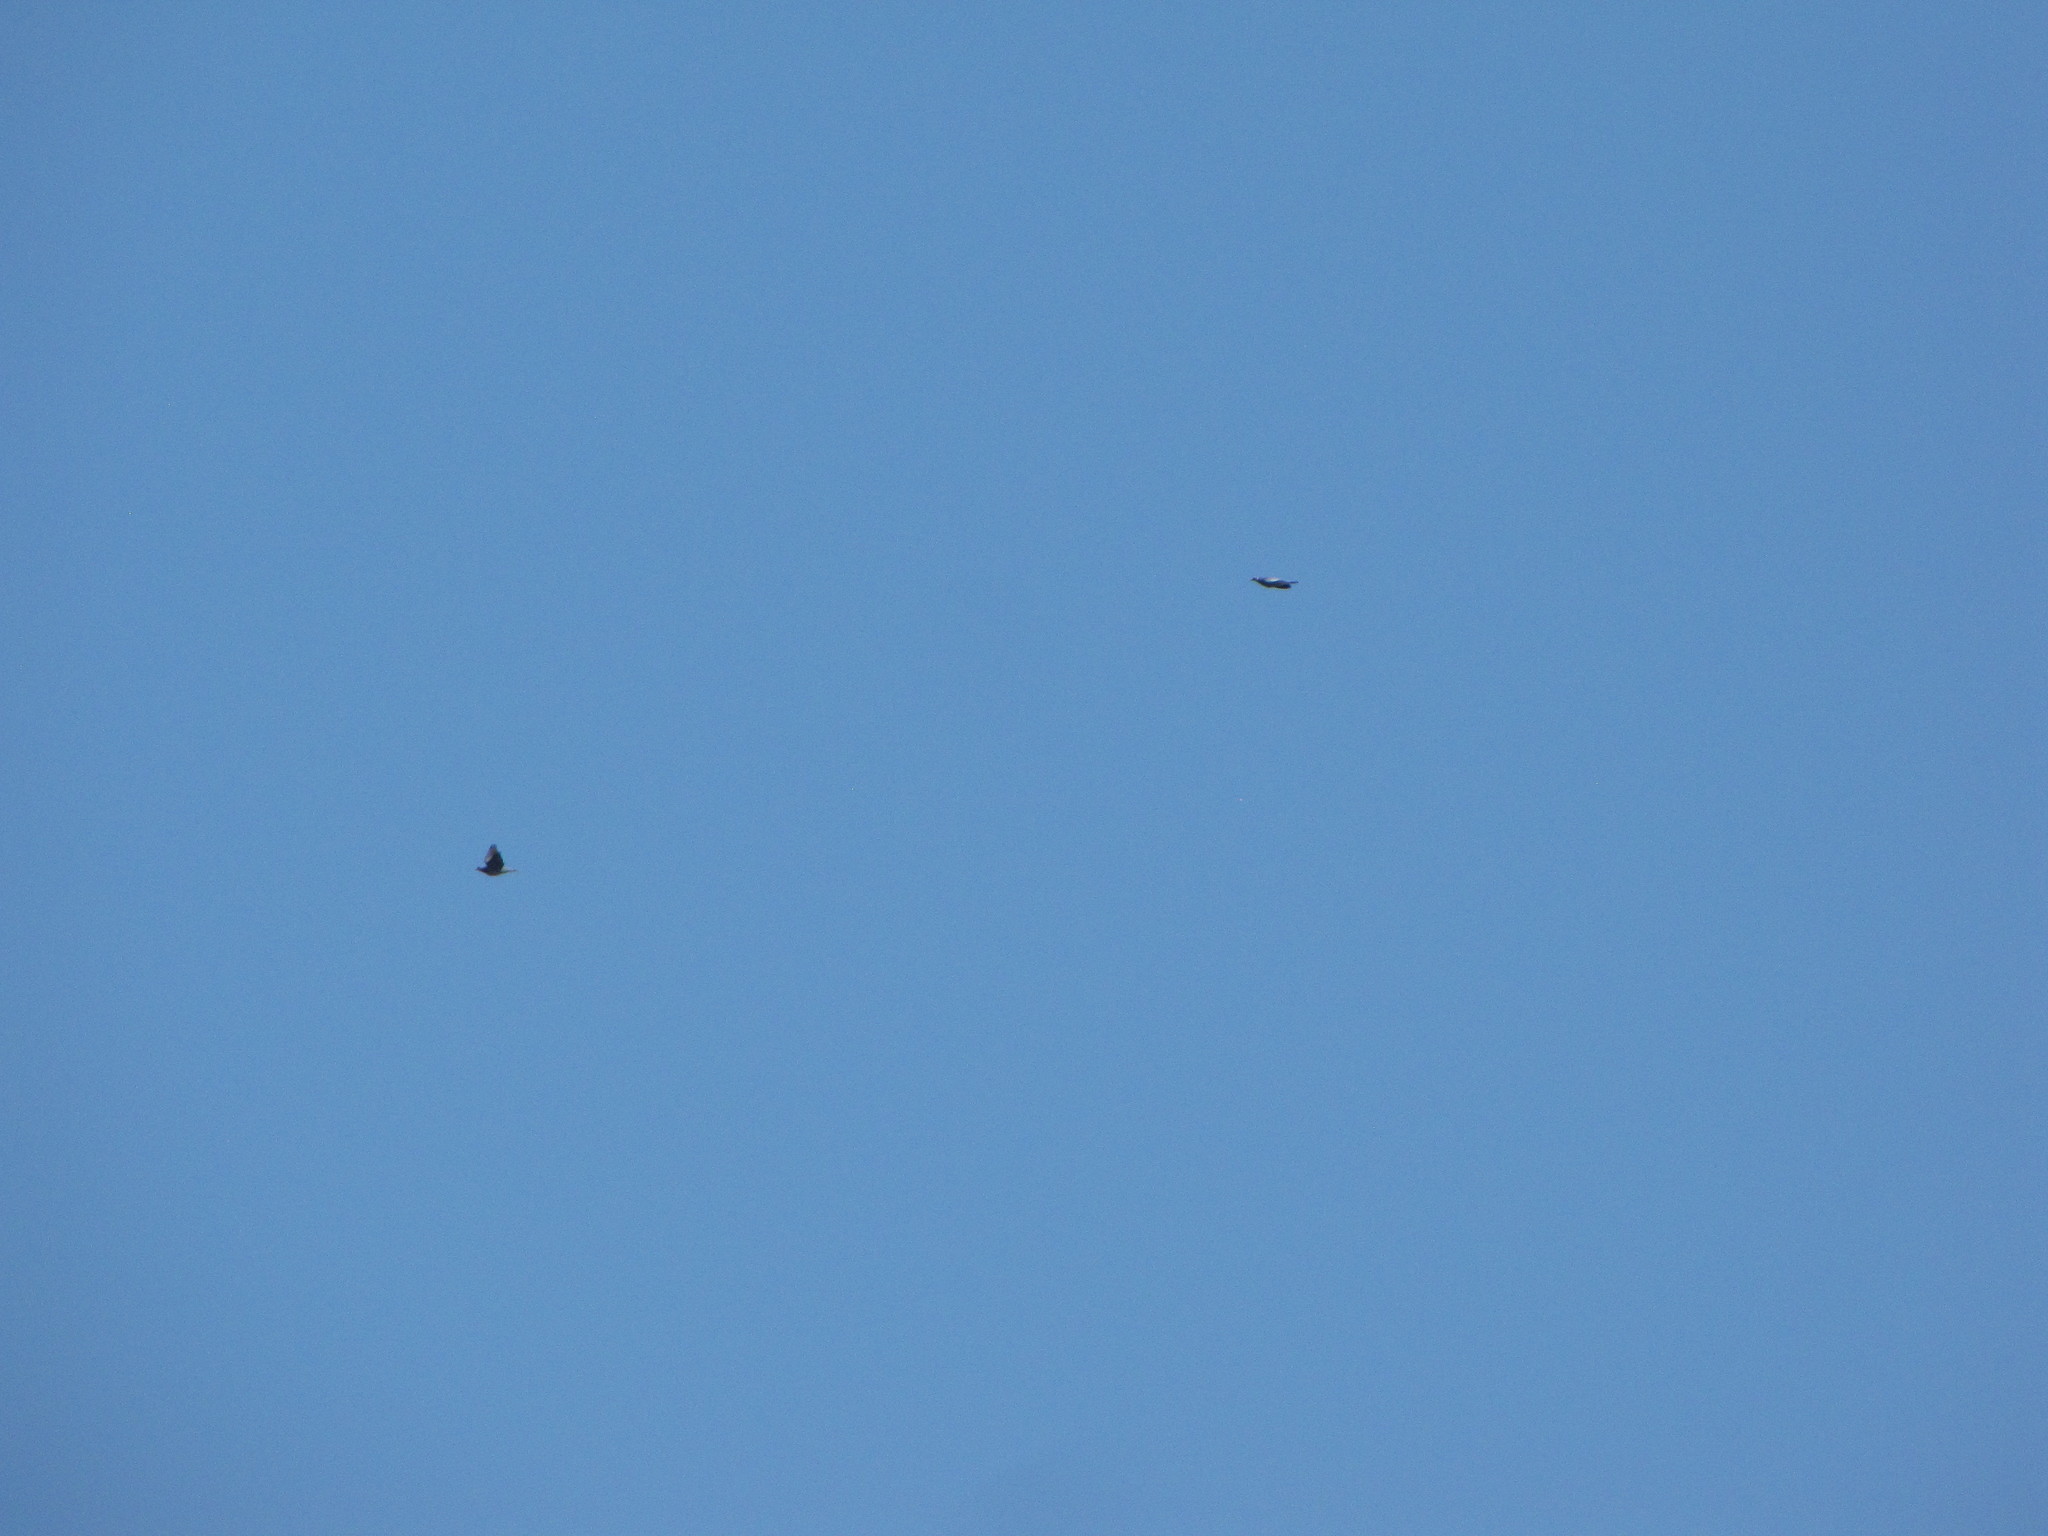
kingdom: Animalia
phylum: Chordata
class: Aves
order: Columbiformes
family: Columbidae
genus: Patagioenas
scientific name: Patagioenas fasciata
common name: Band-tailed pigeon
